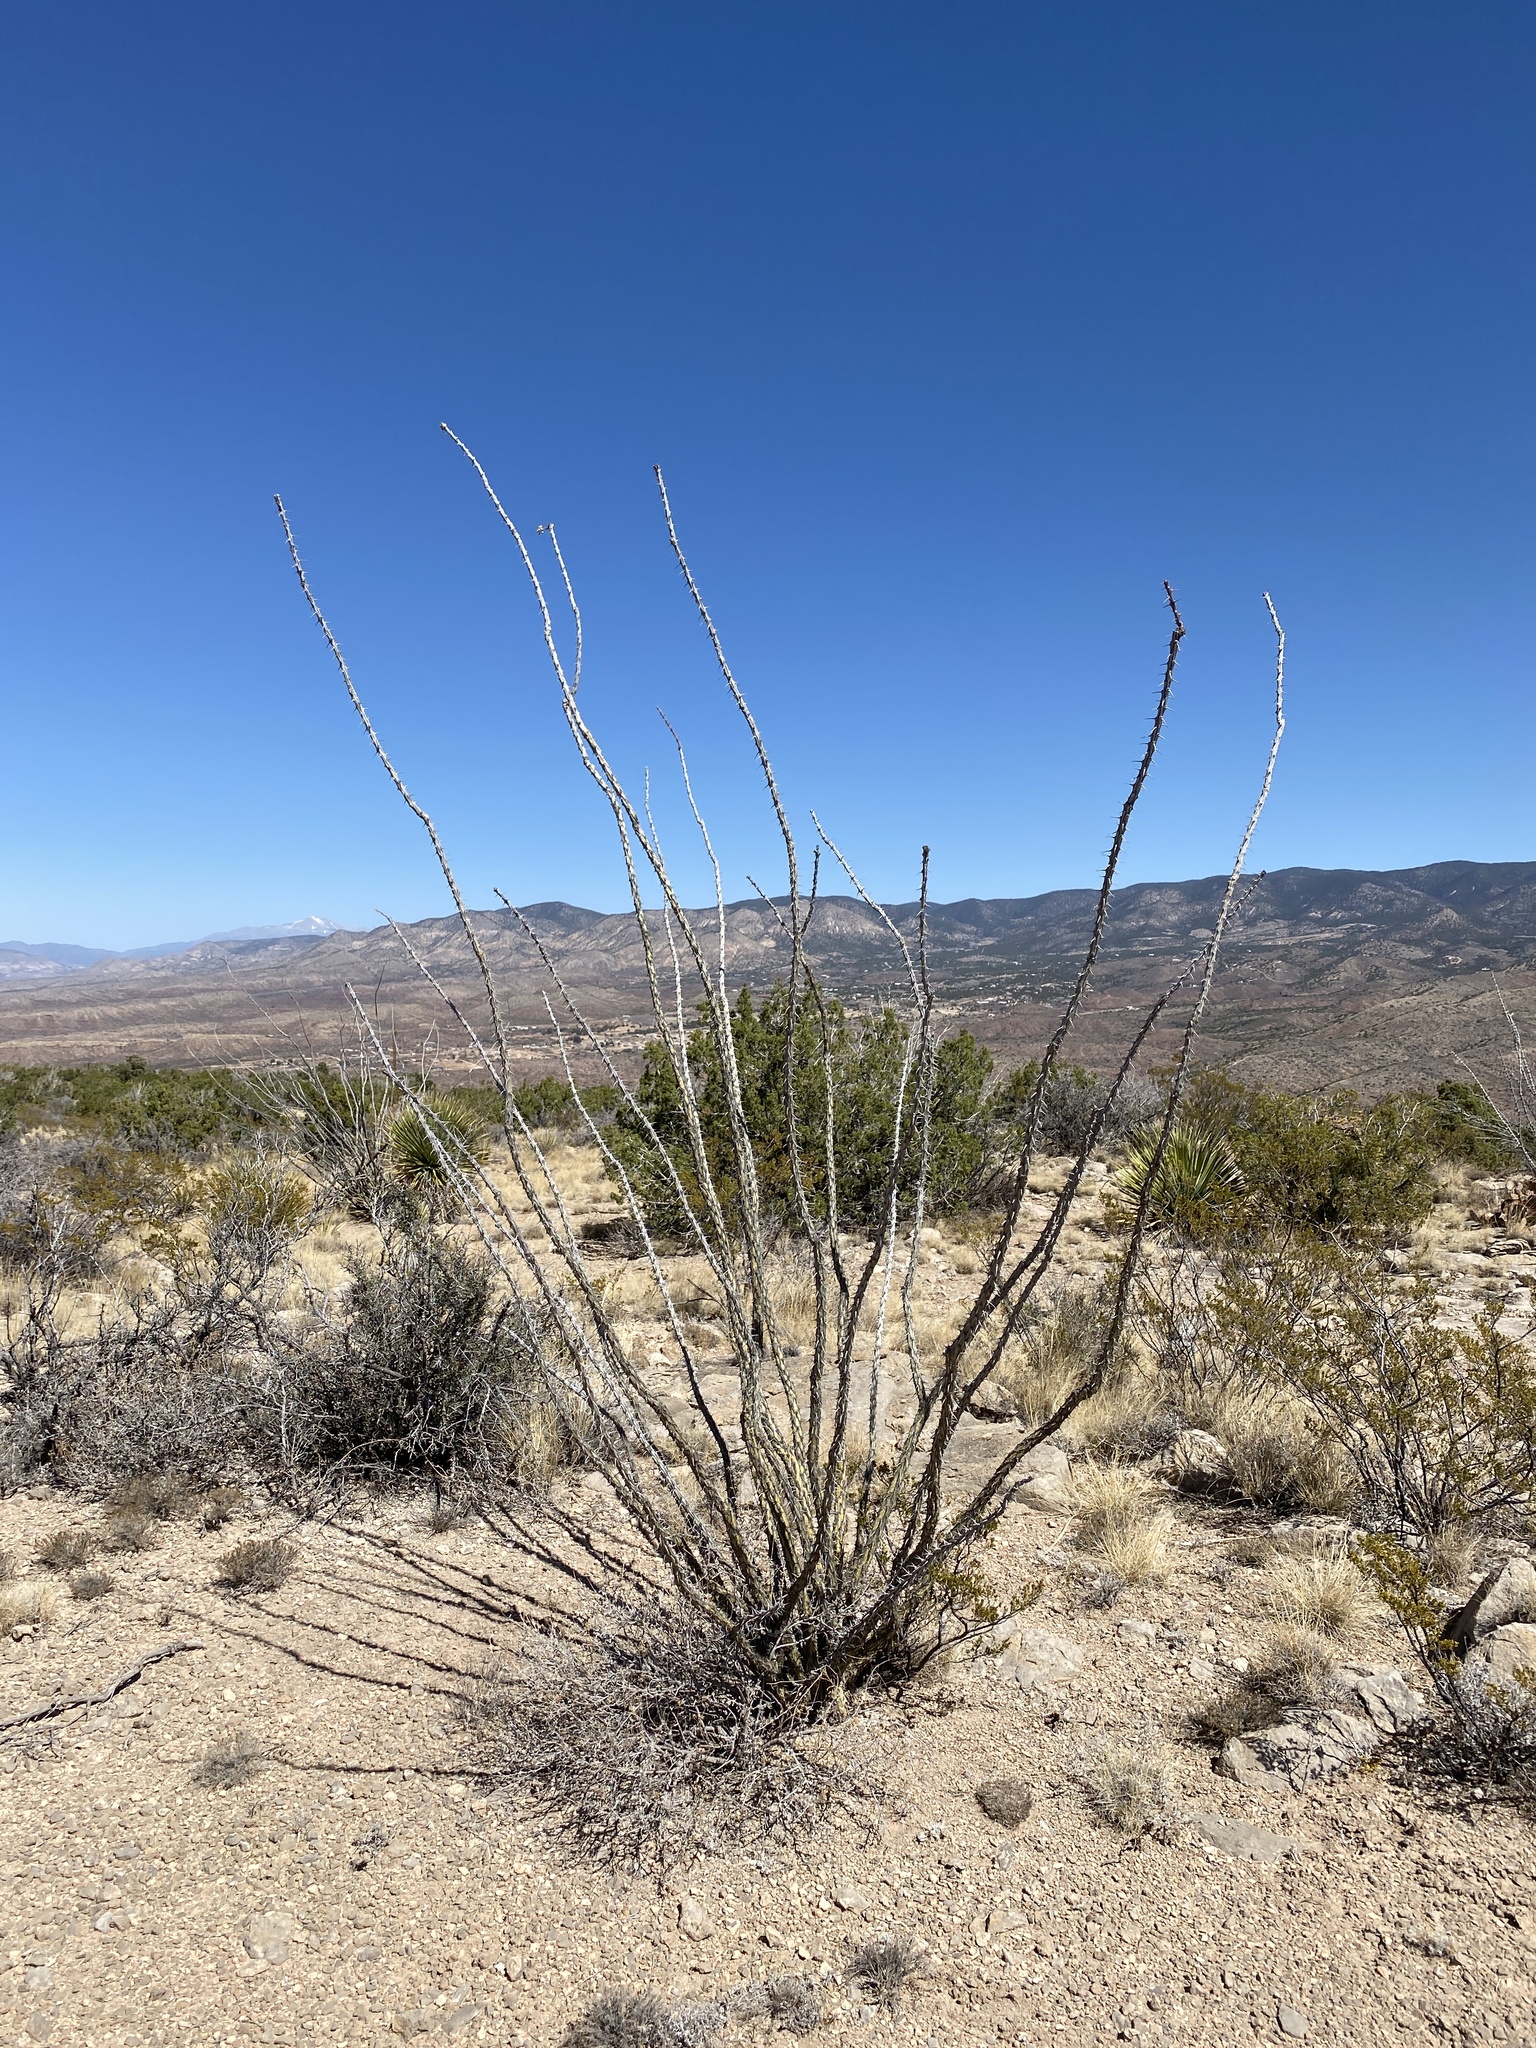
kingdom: Plantae
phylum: Tracheophyta
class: Magnoliopsida
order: Ericales
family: Fouquieriaceae
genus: Fouquieria
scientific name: Fouquieria splendens
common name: Vine-cactus
